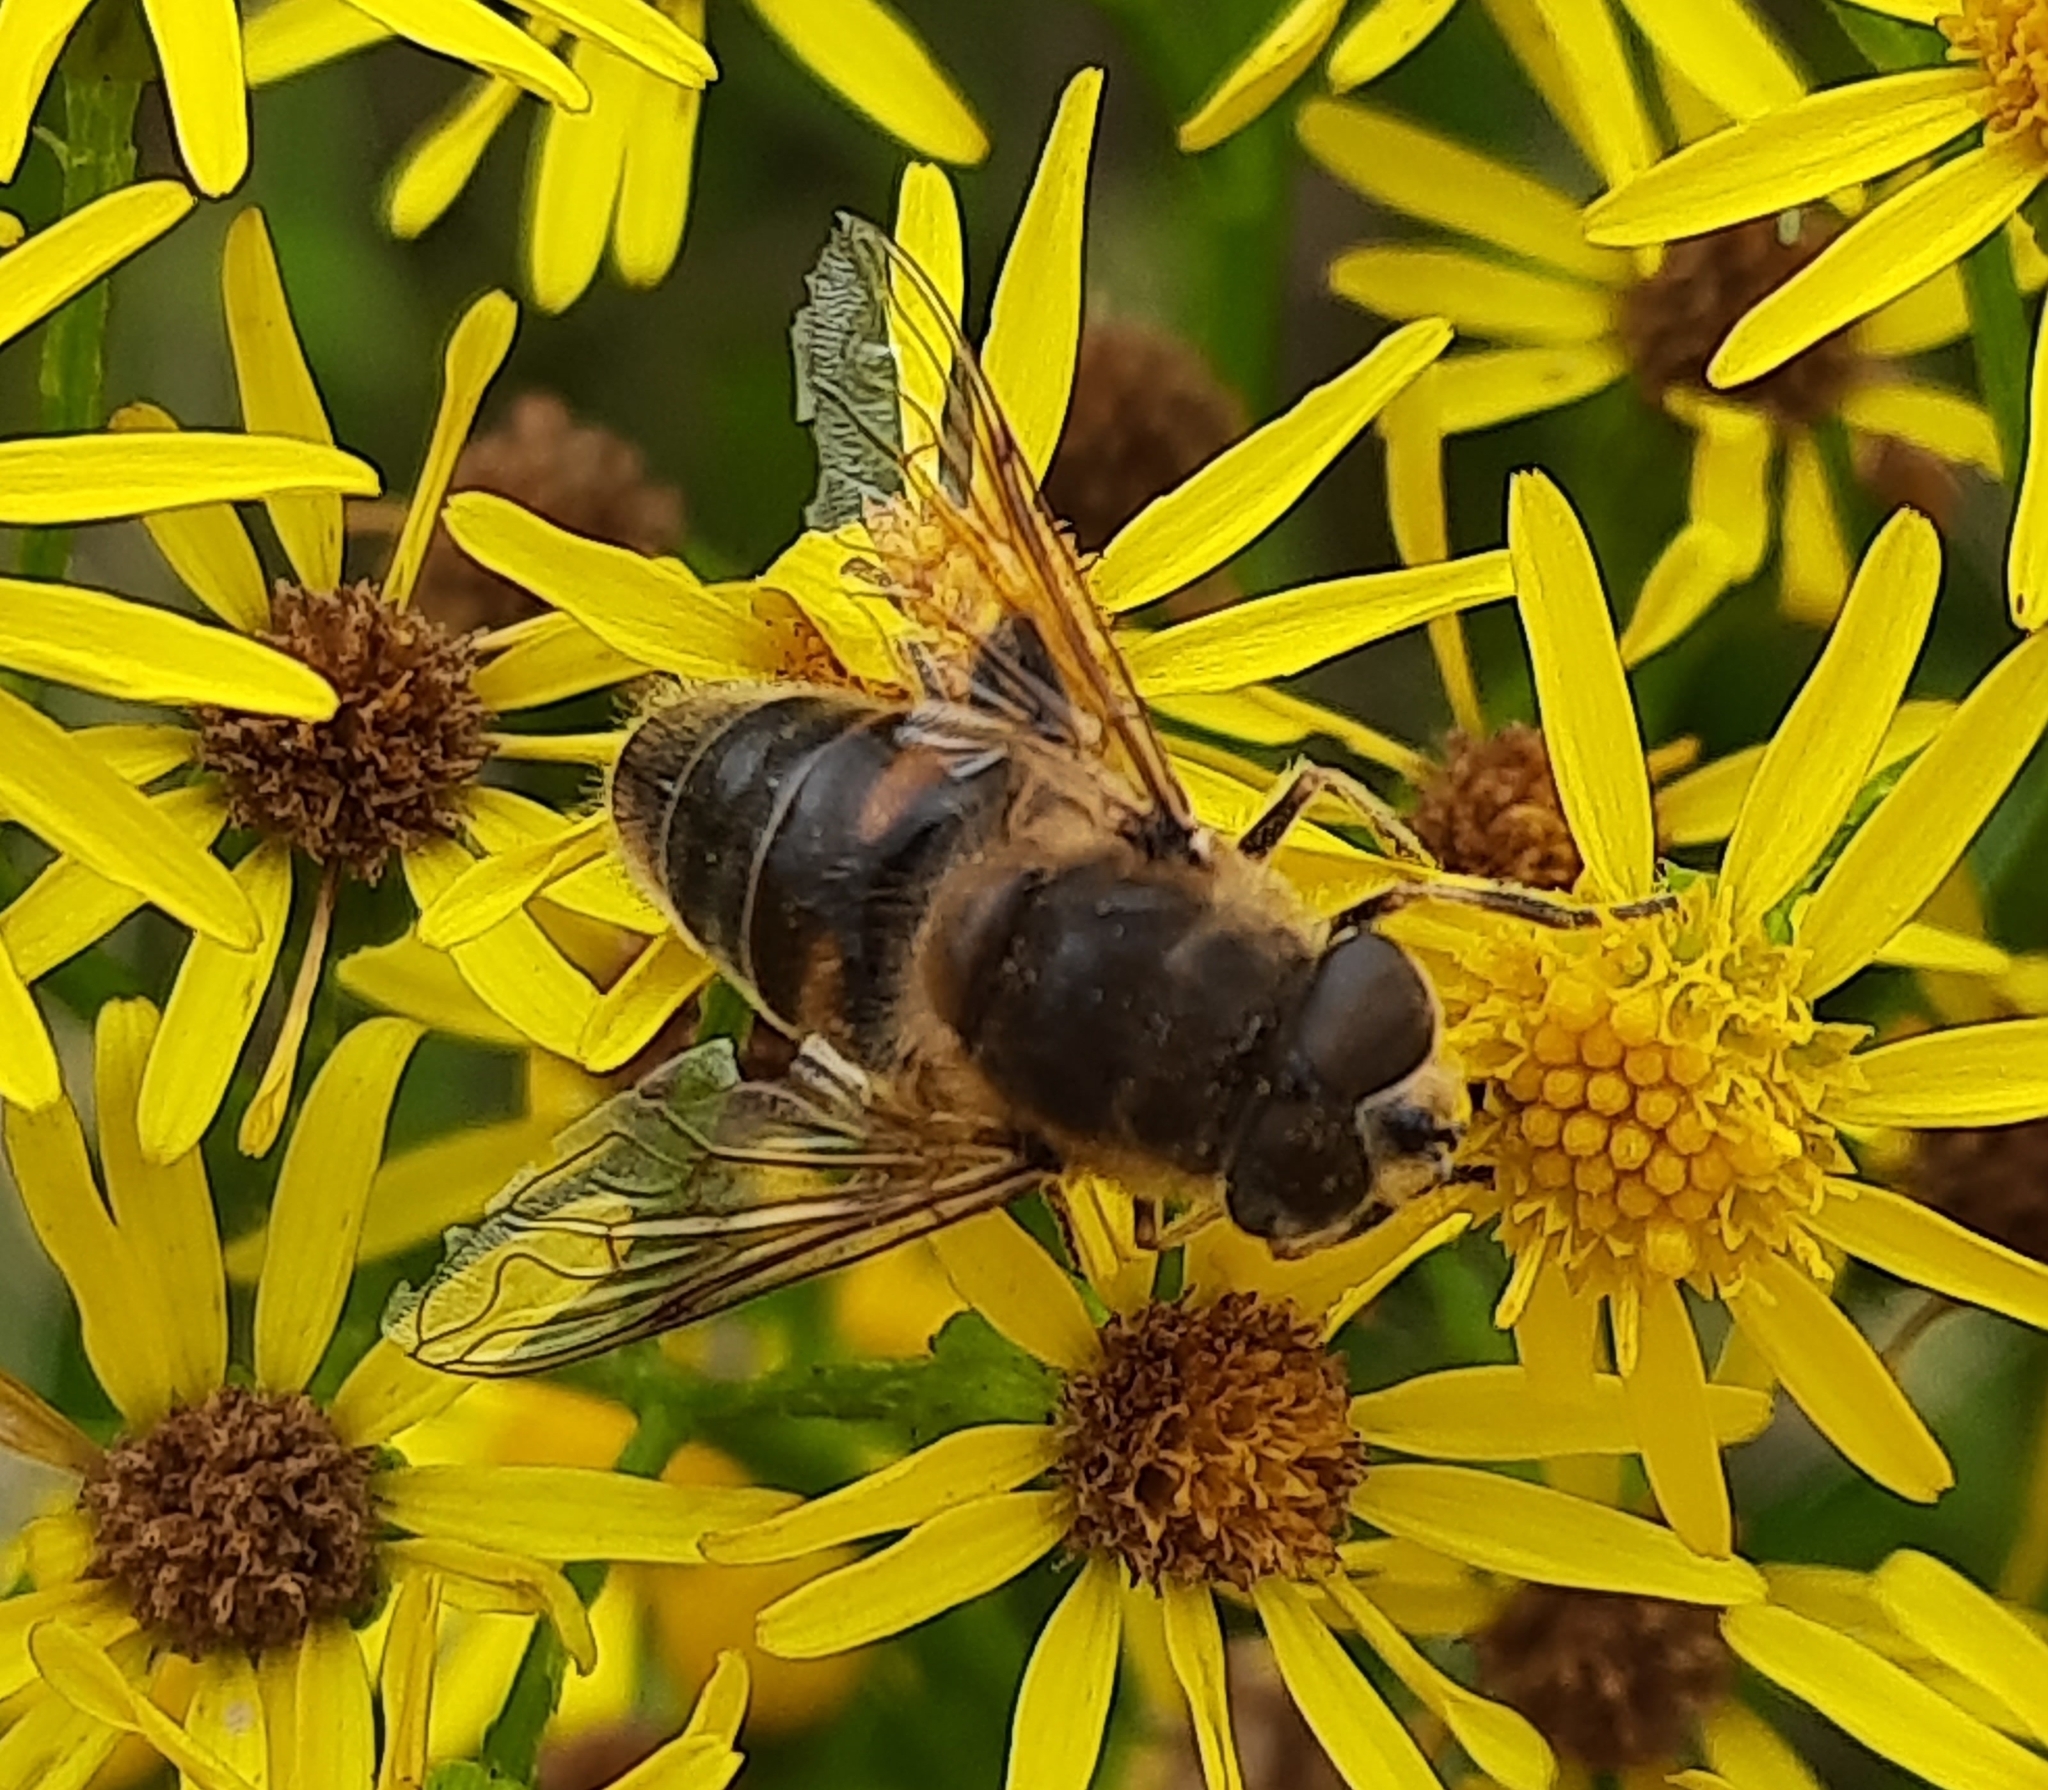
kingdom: Animalia
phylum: Arthropoda
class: Insecta
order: Diptera
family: Syrphidae
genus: Eristalis
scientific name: Eristalis tenax
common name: Drone fly
